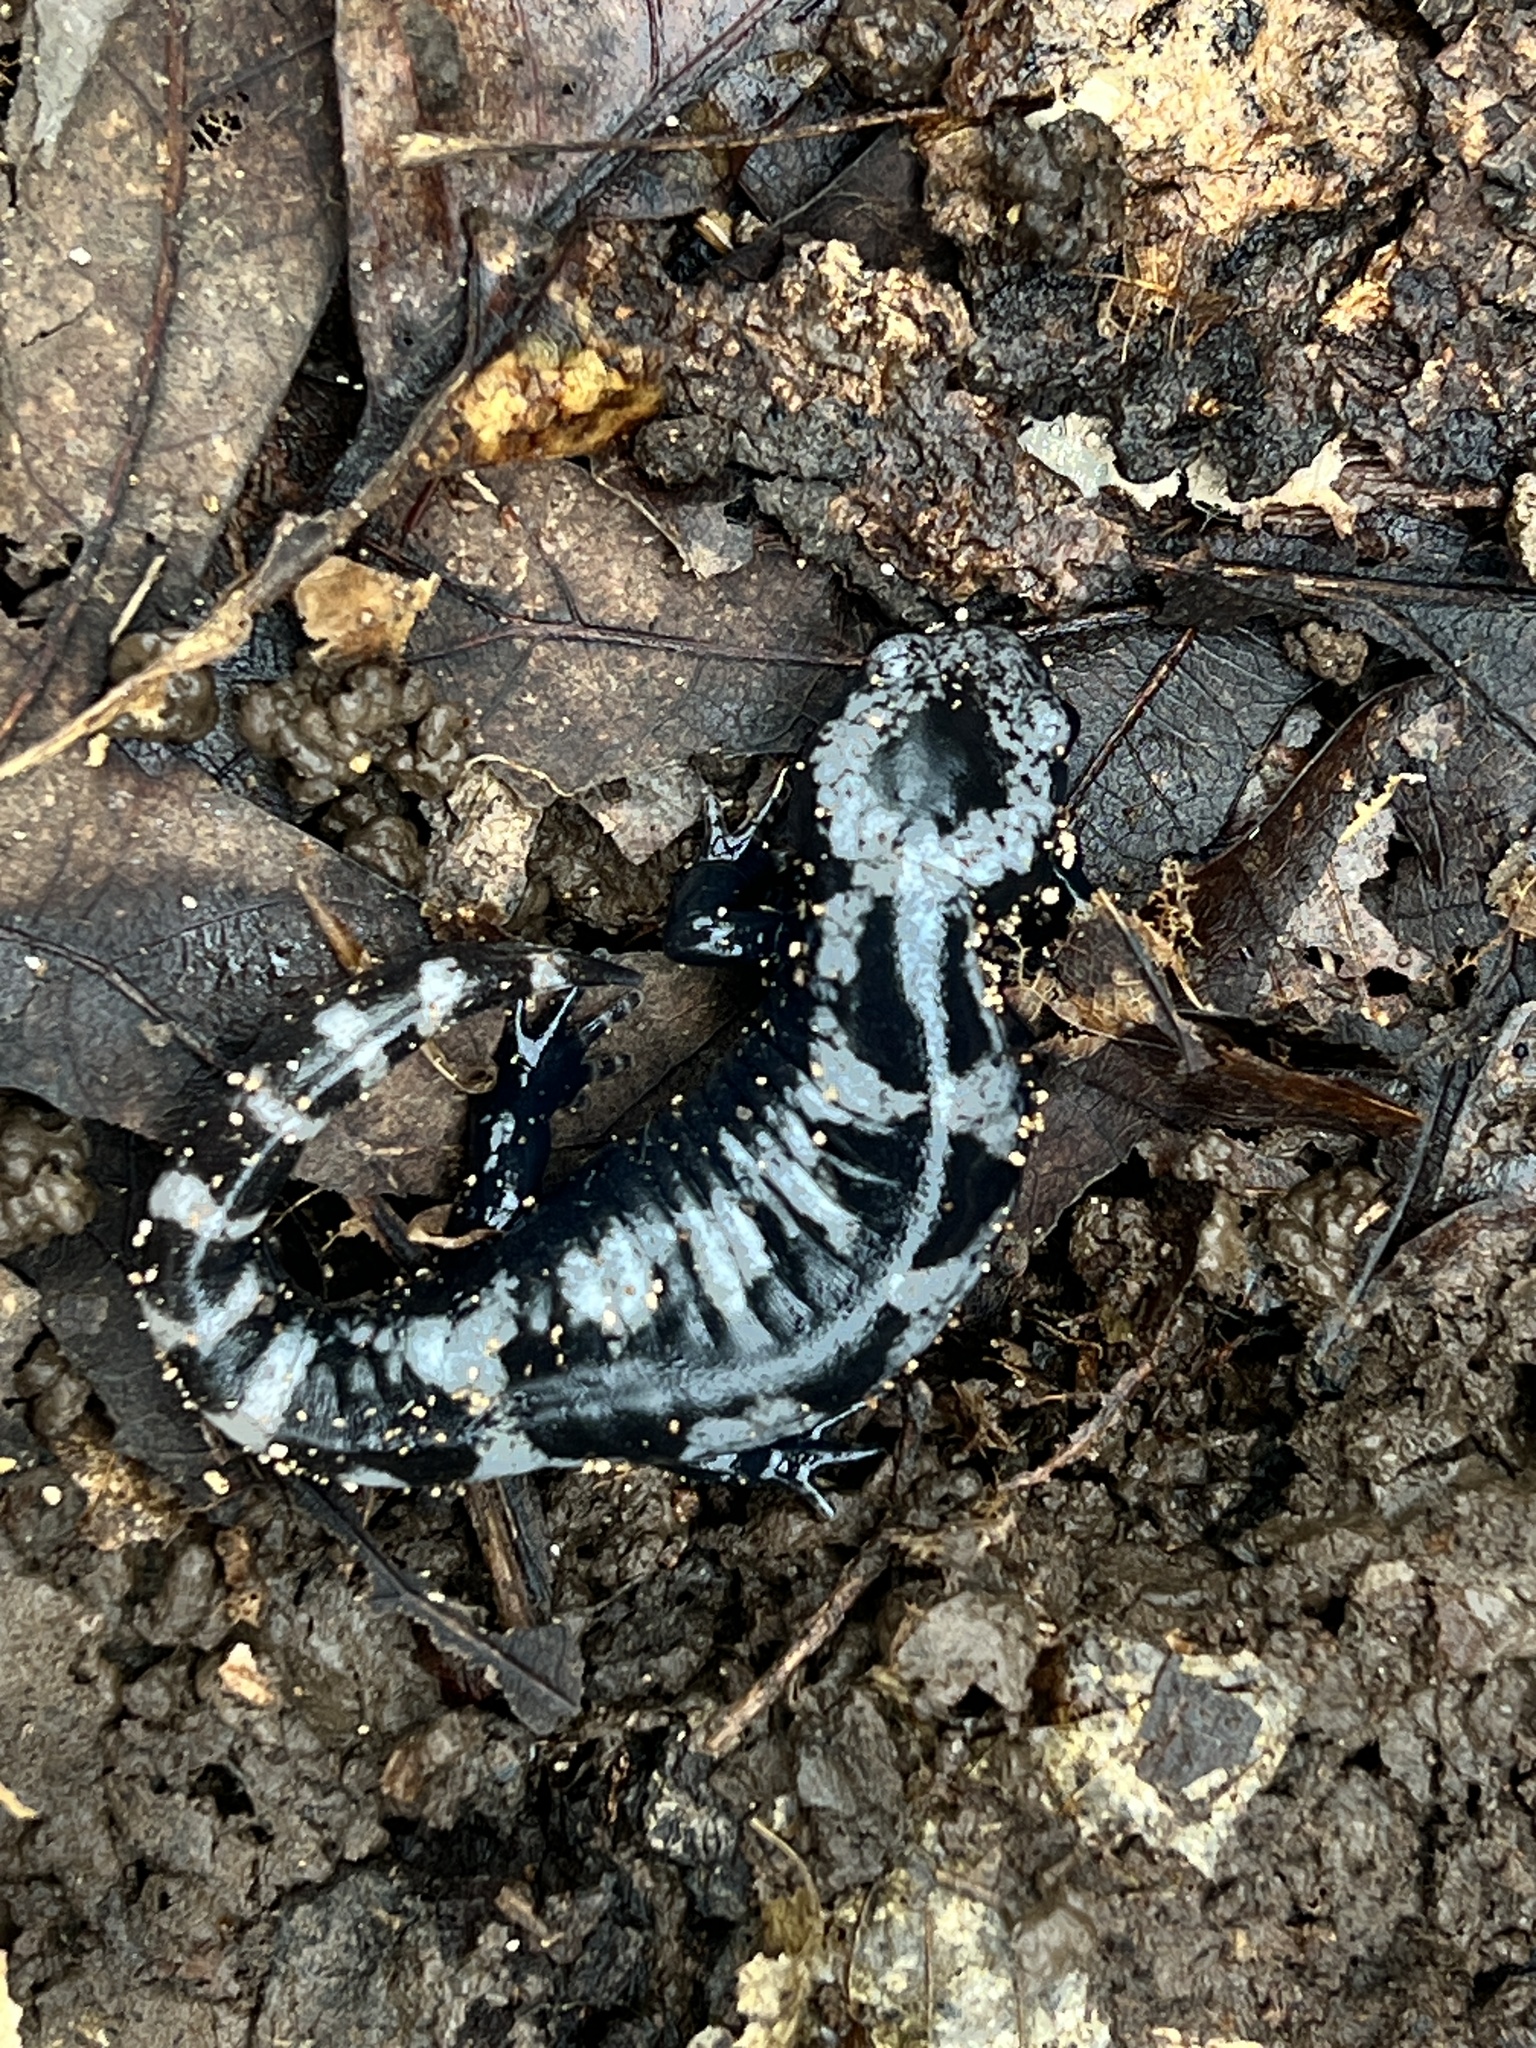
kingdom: Animalia
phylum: Chordata
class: Amphibia
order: Caudata
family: Ambystomatidae
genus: Ambystoma
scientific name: Ambystoma opacum
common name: Marbled salamander
